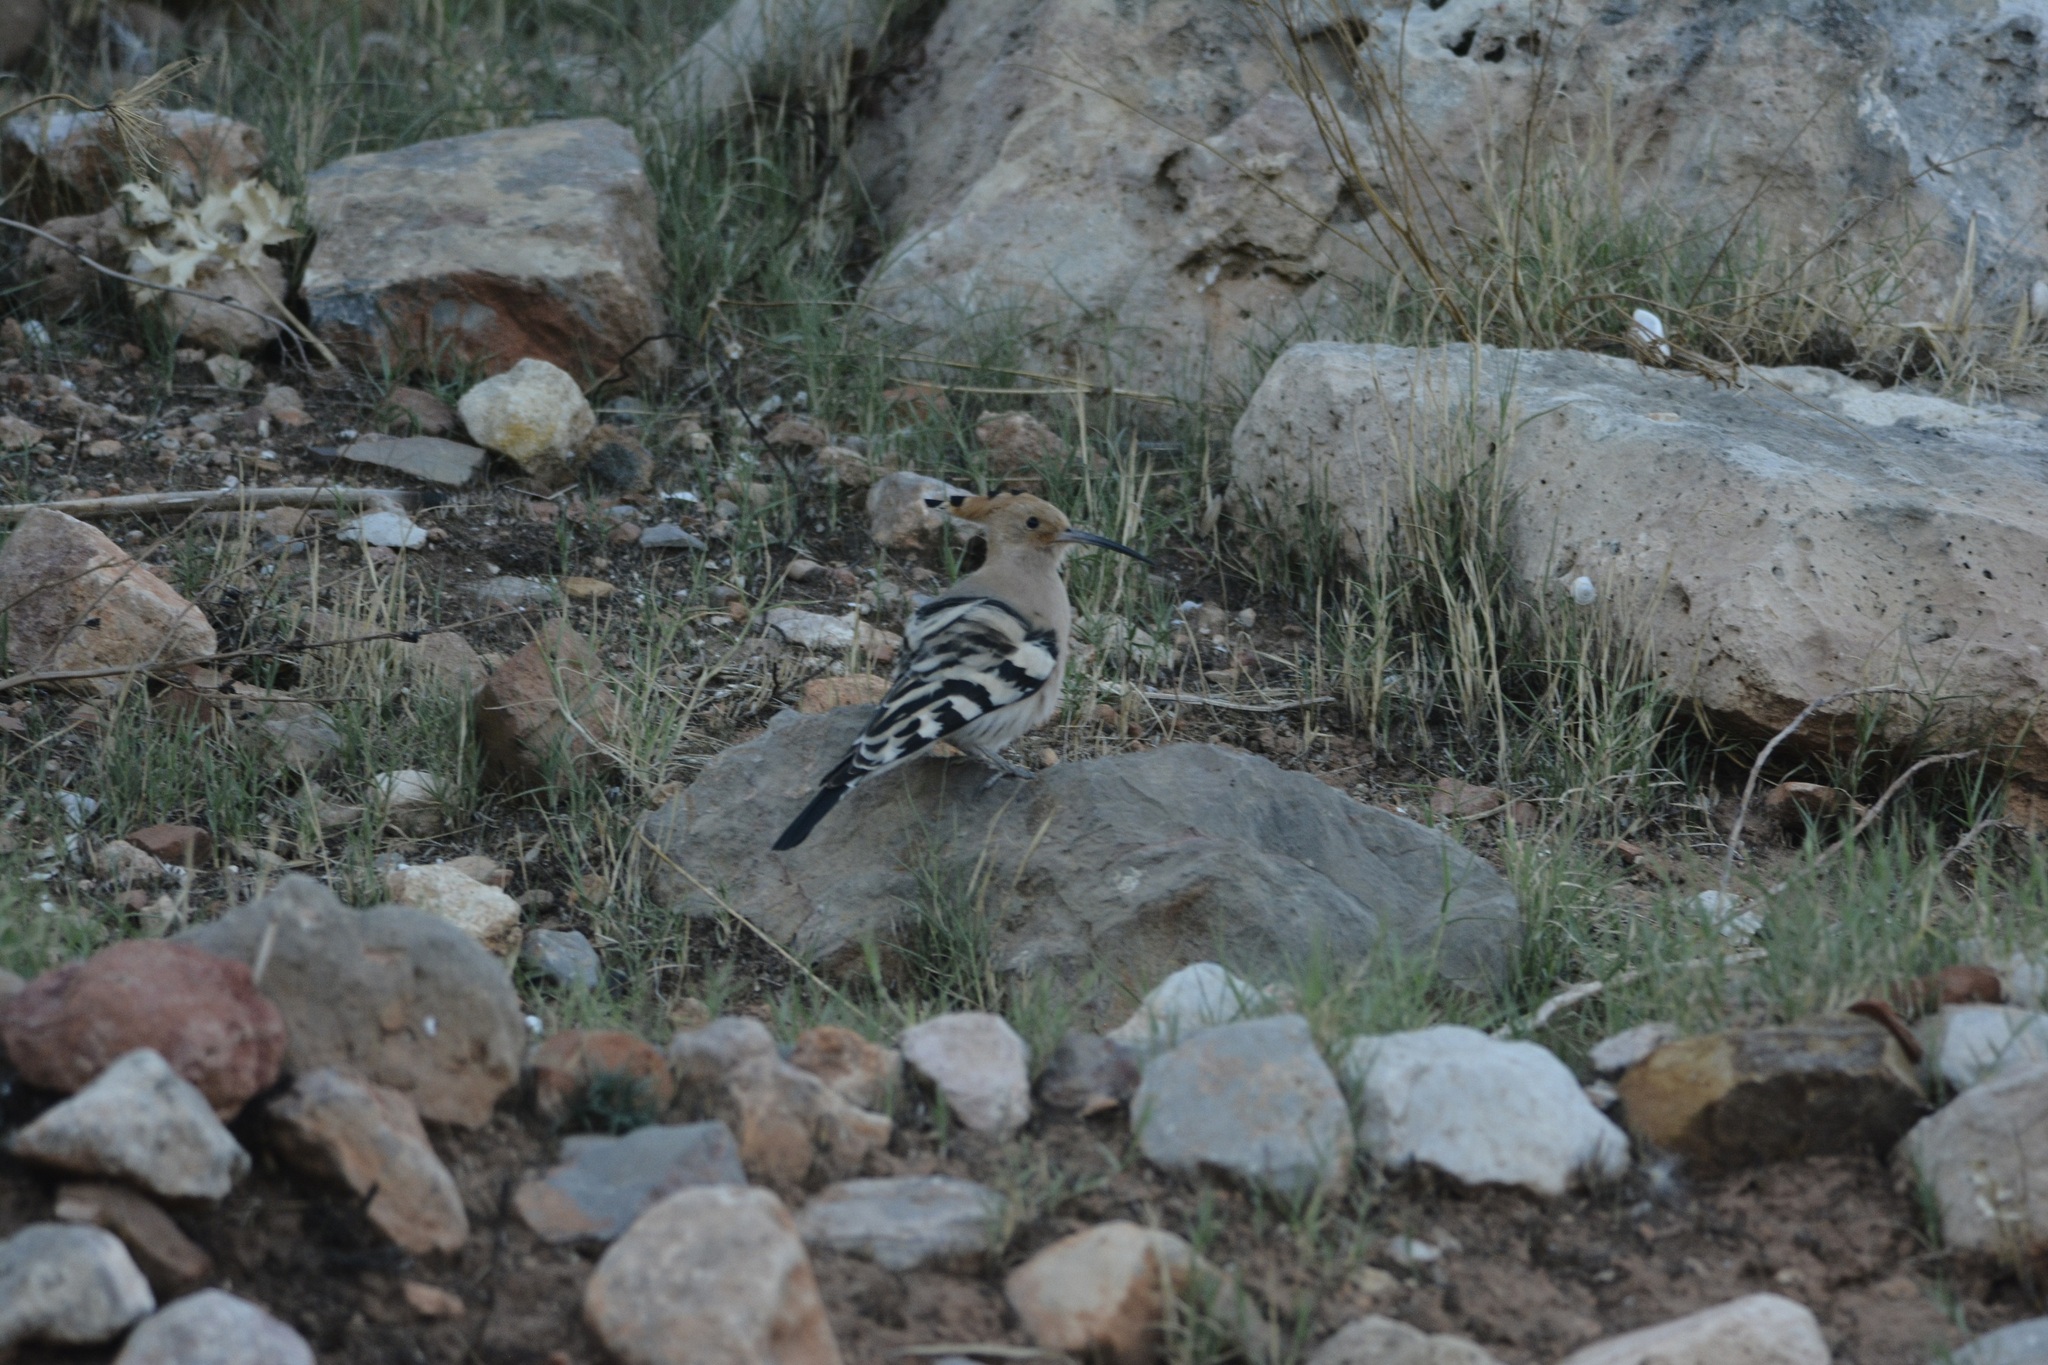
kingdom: Animalia
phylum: Chordata
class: Aves
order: Bucerotiformes
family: Upupidae
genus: Upupa
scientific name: Upupa epops
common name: Eurasian hoopoe
